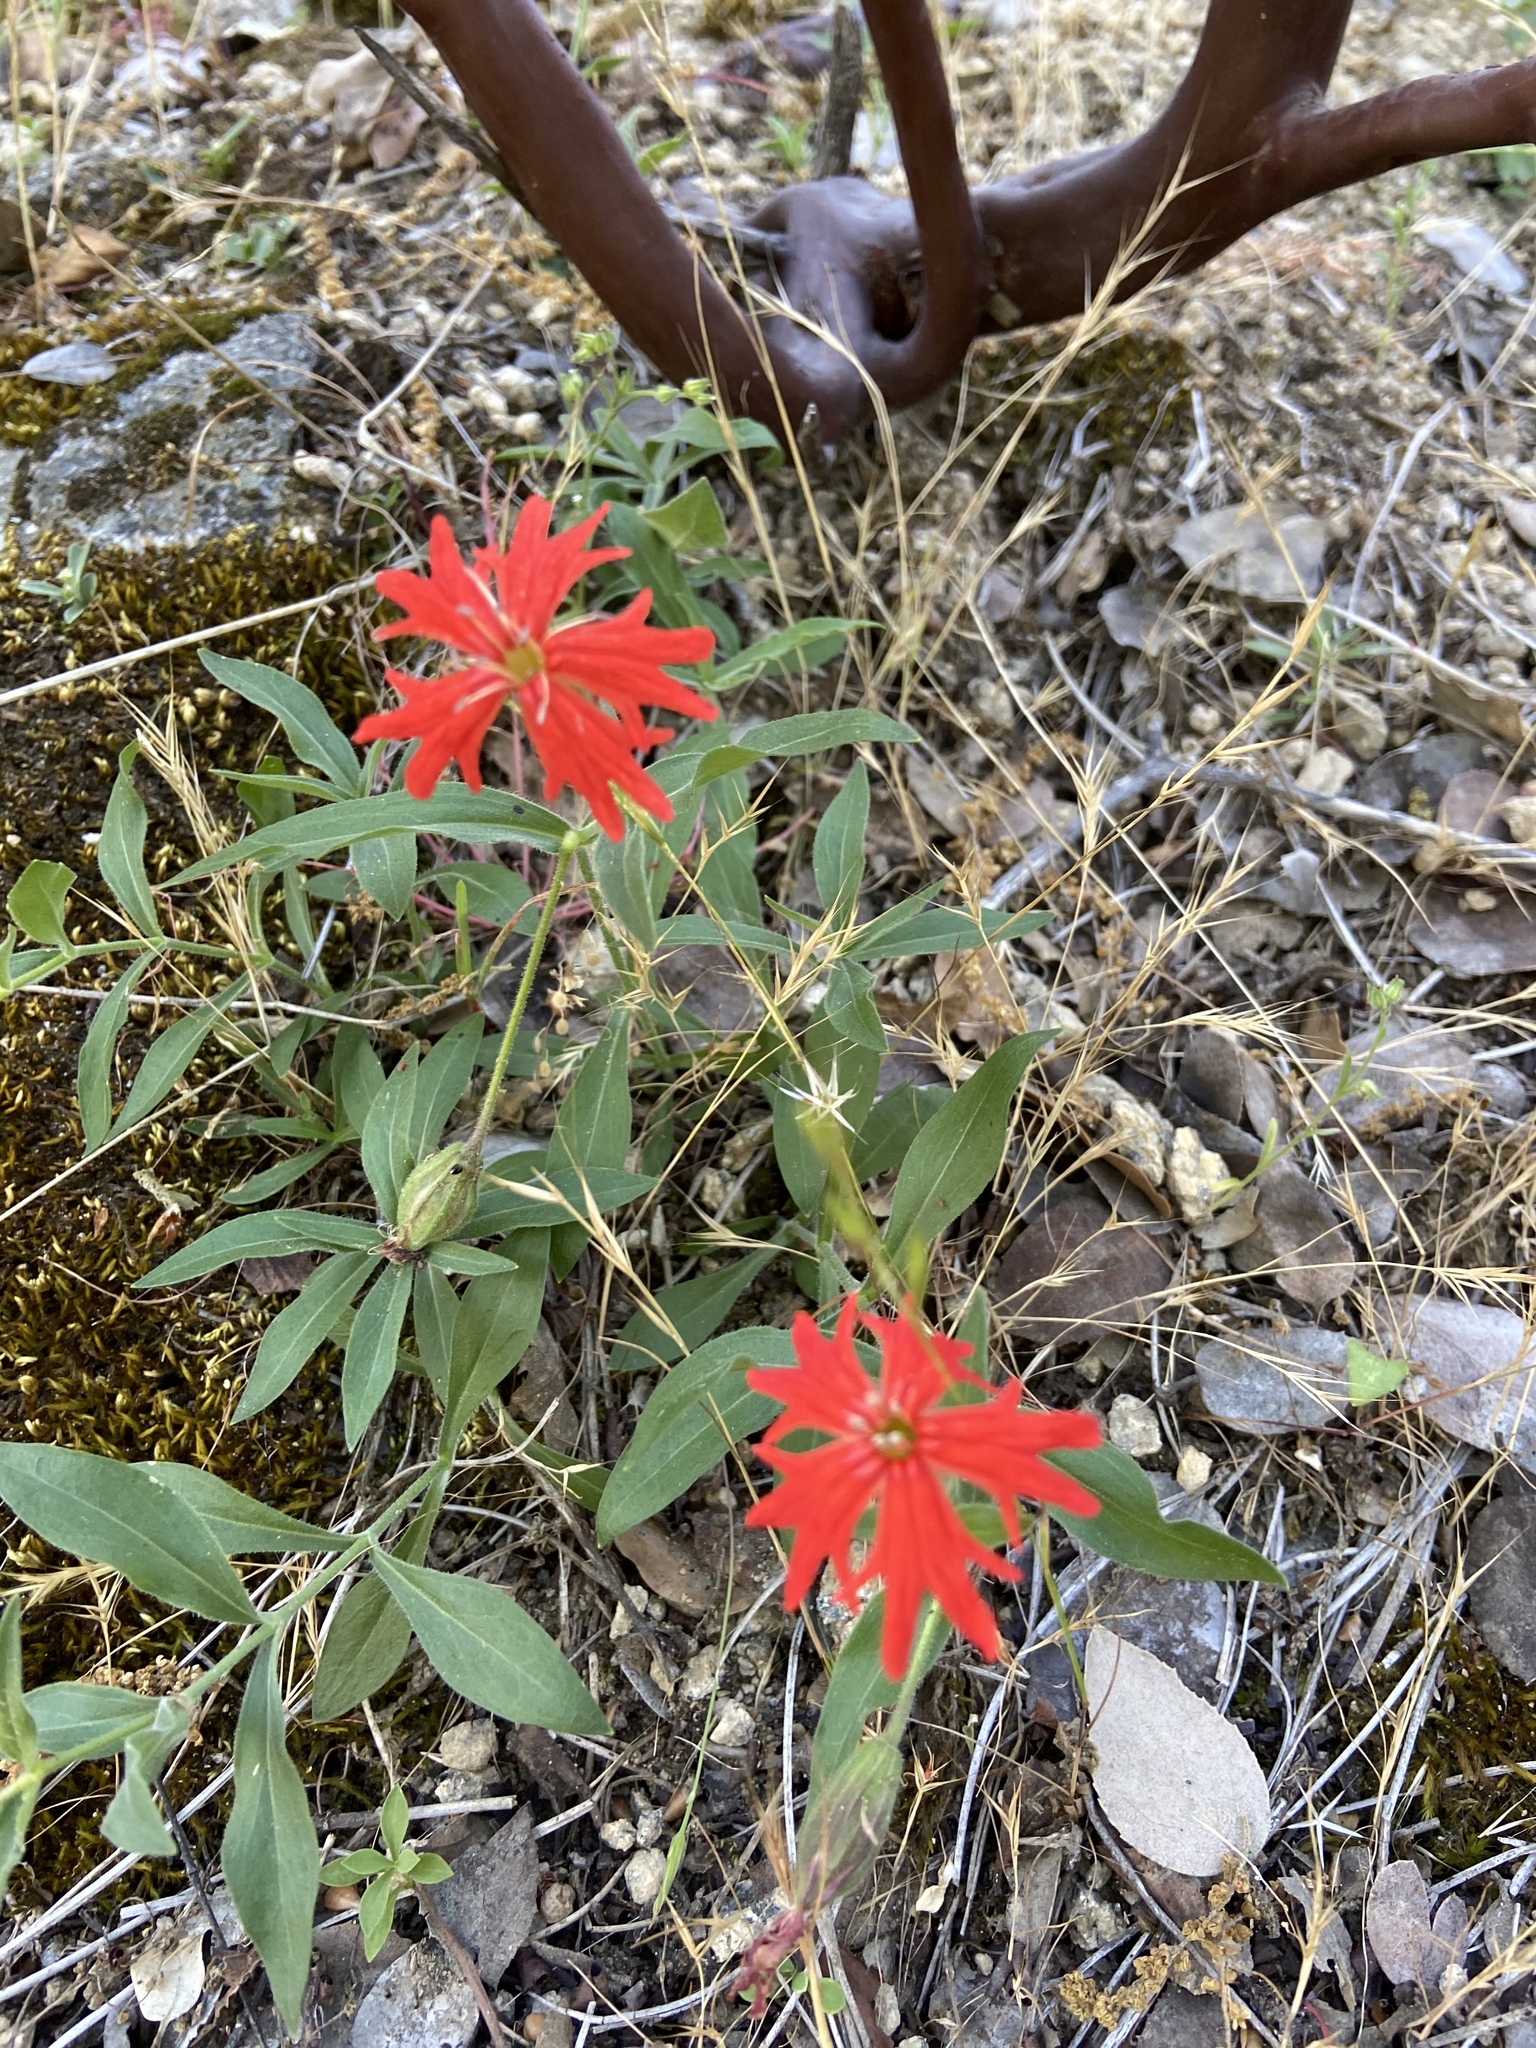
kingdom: Plantae
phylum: Tracheophyta
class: Magnoliopsida
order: Caryophyllales
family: Caryophyllaceae
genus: Silene
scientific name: Silene laciniata
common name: Indian-pink
